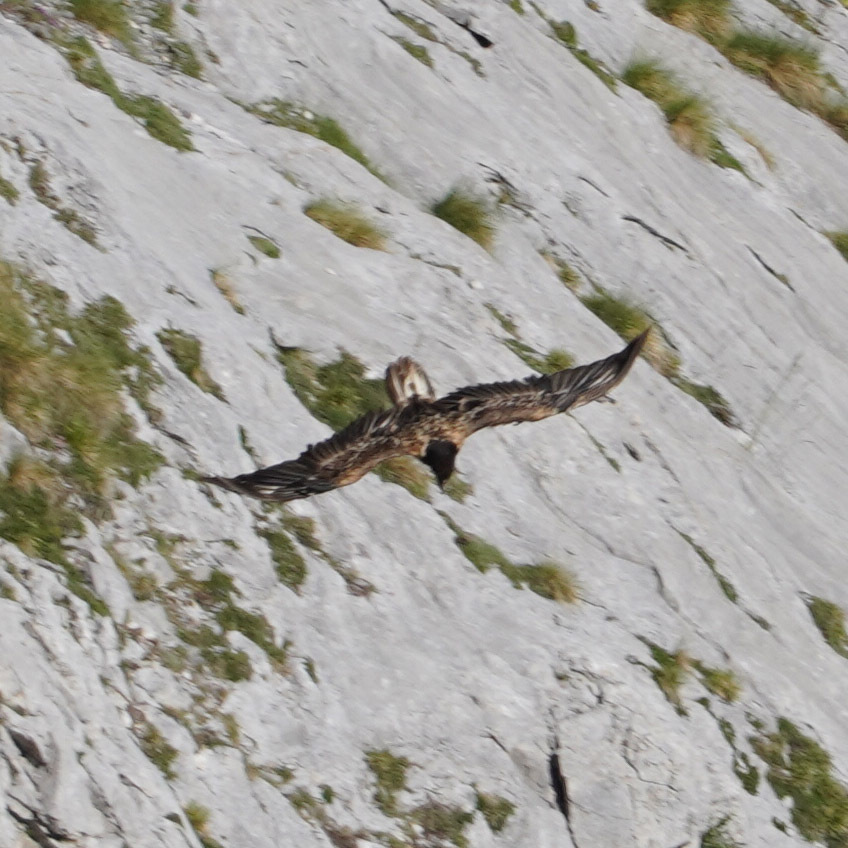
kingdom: Animalia
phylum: Chordata
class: Aves
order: Accipitriformes
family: Accipitridae
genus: Gypaetus
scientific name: Gypaetus barbatus
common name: Bearded vulture
